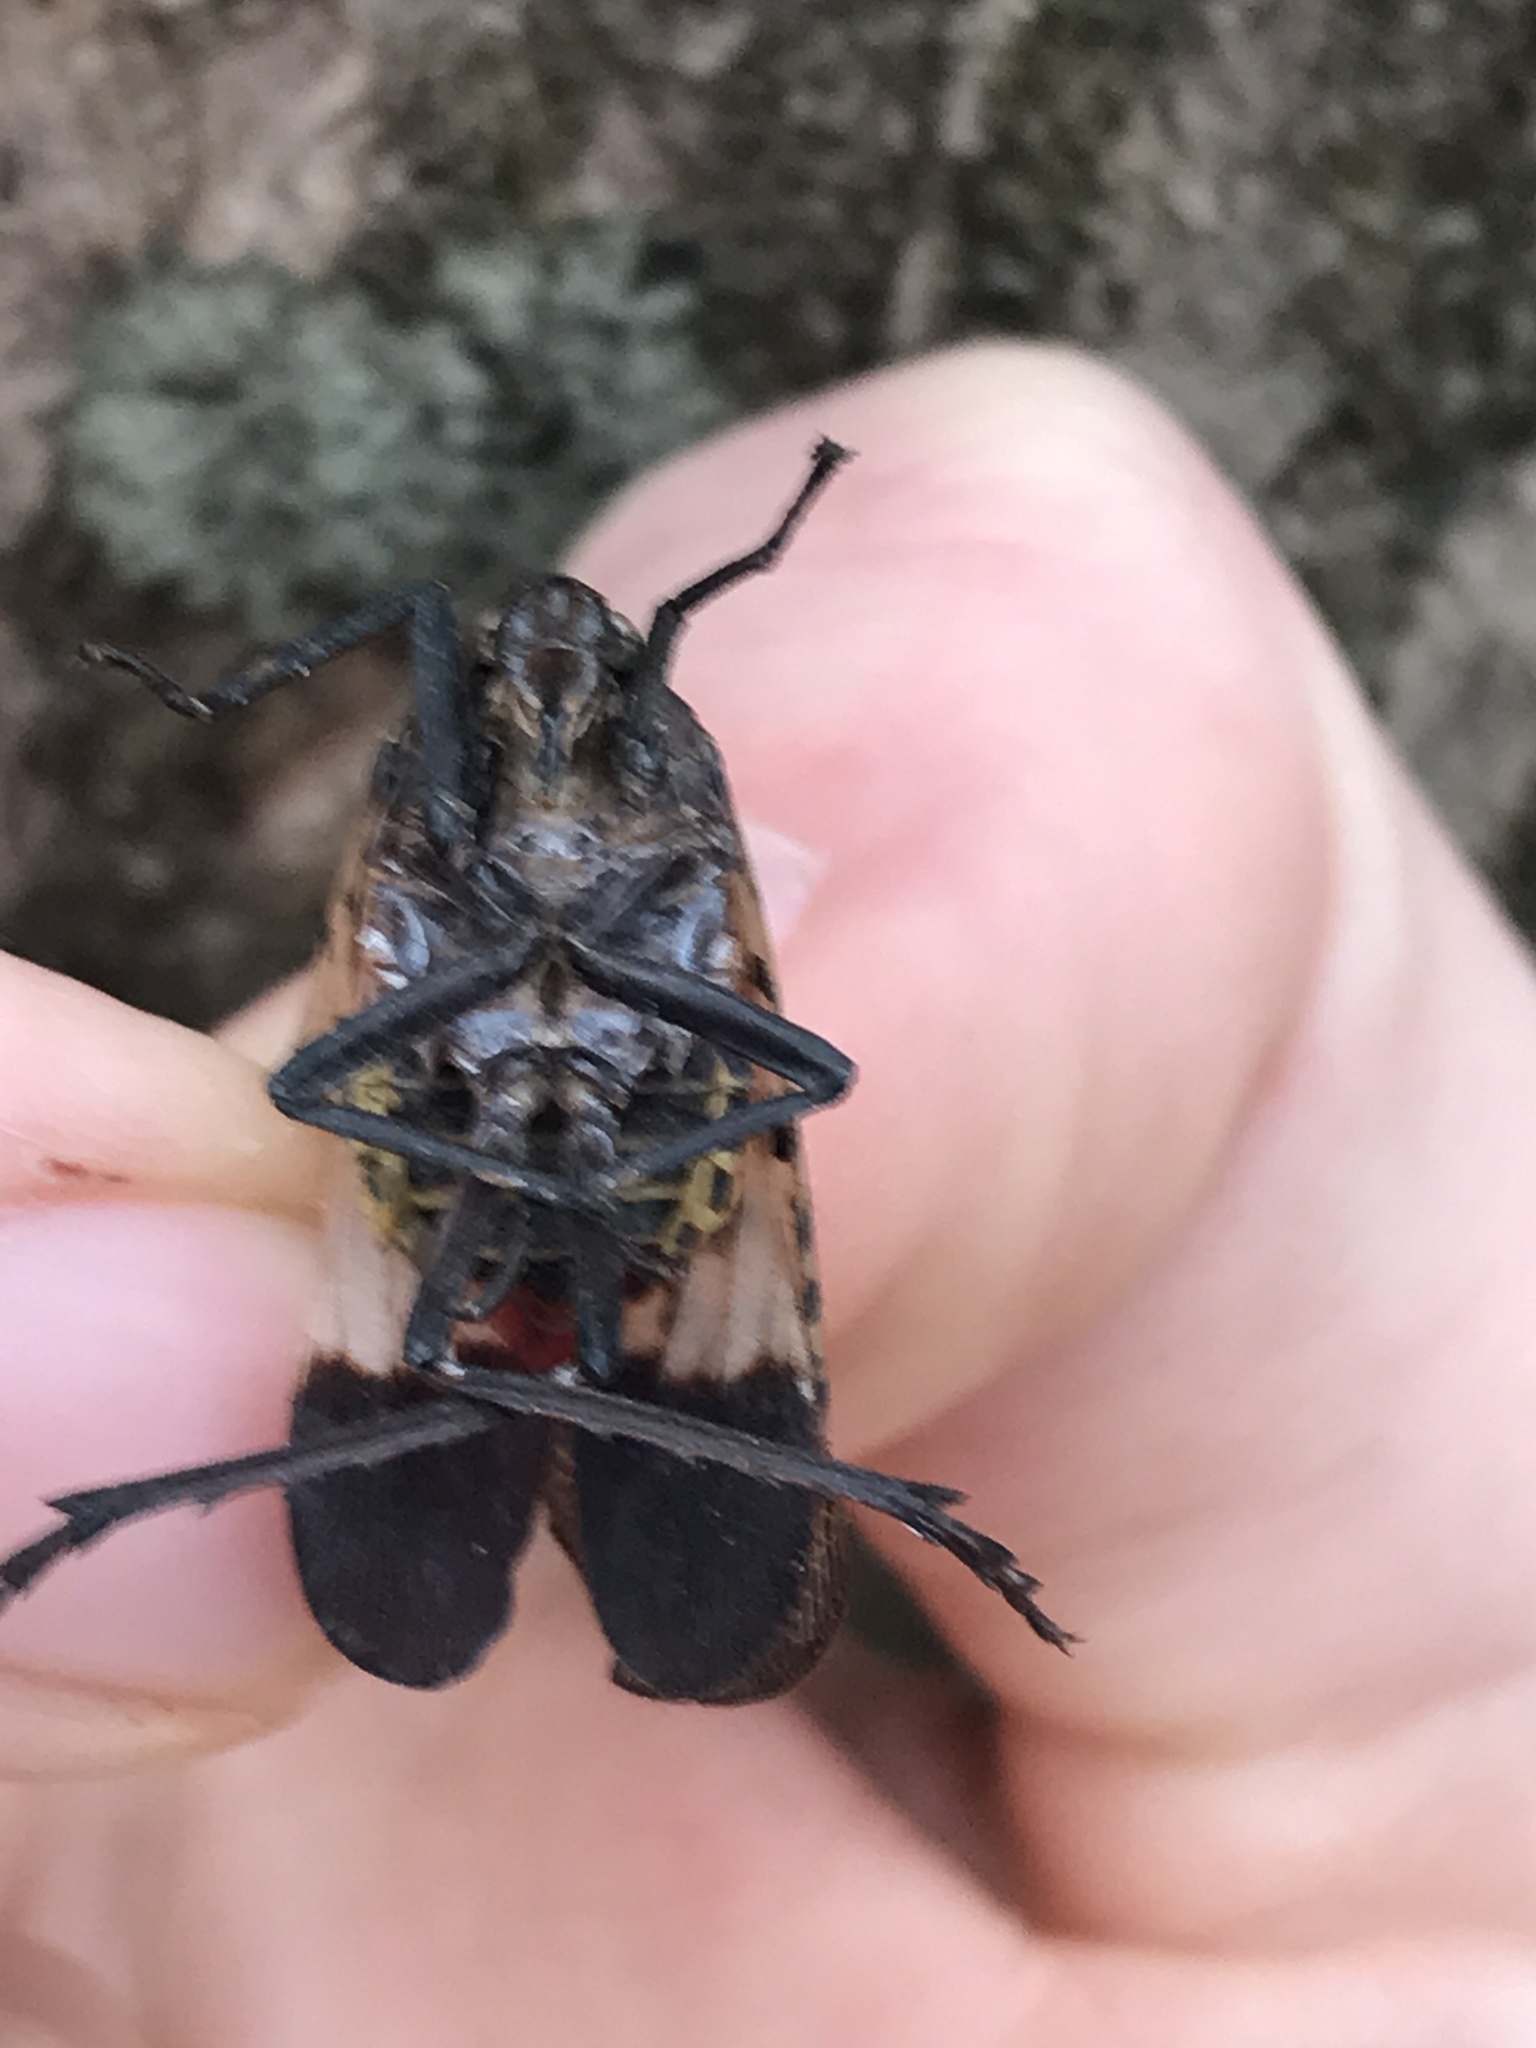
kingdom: Fungi
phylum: Entomophthoromycota
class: Entomophthoromycetes
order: Entomophthorales
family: Entomophthoraceae
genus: Batkoa
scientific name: Batkoa major
